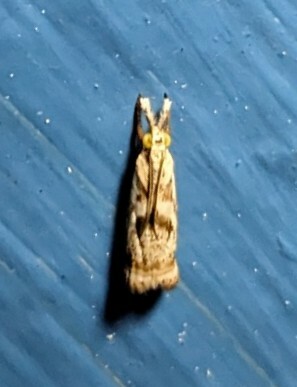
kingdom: Animalia
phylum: Arthropoda
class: Insecta
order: Lepidoptera
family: Crambidae
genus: Microcrambus
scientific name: Microcrambus elegans
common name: Elegant grass-veneer
